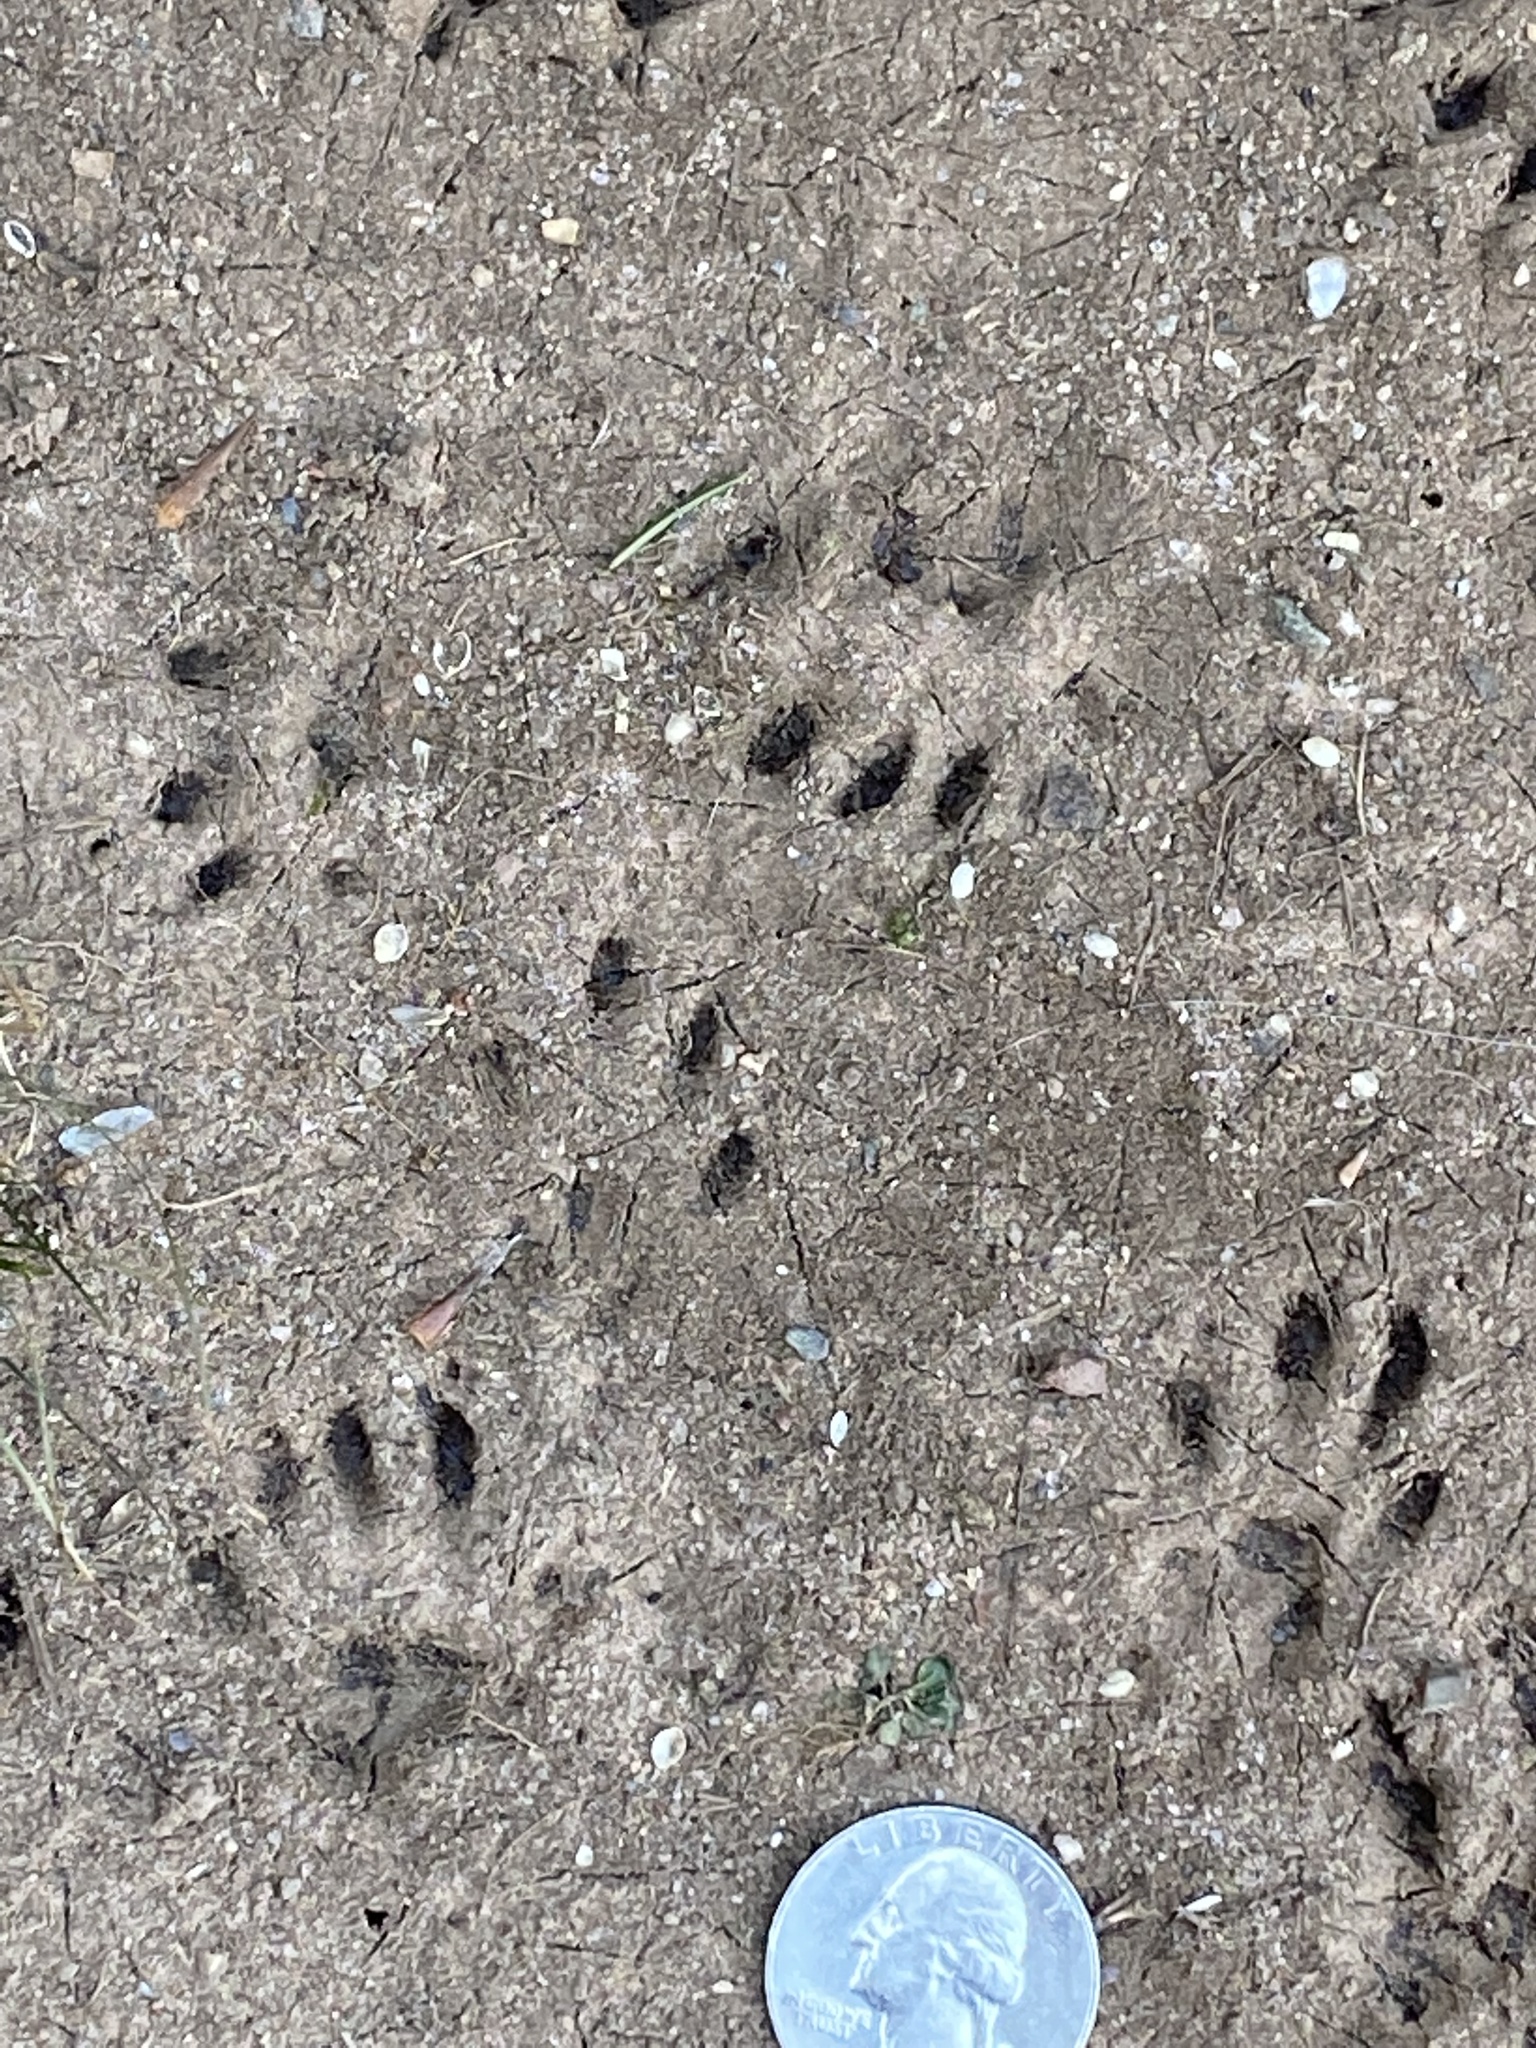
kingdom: Animalia
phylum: Chordata
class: Mammalia
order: Rodentia
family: Sciuridae
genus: Sciurus
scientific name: Sciurus carolinensis
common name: Eastern gray squirrel
